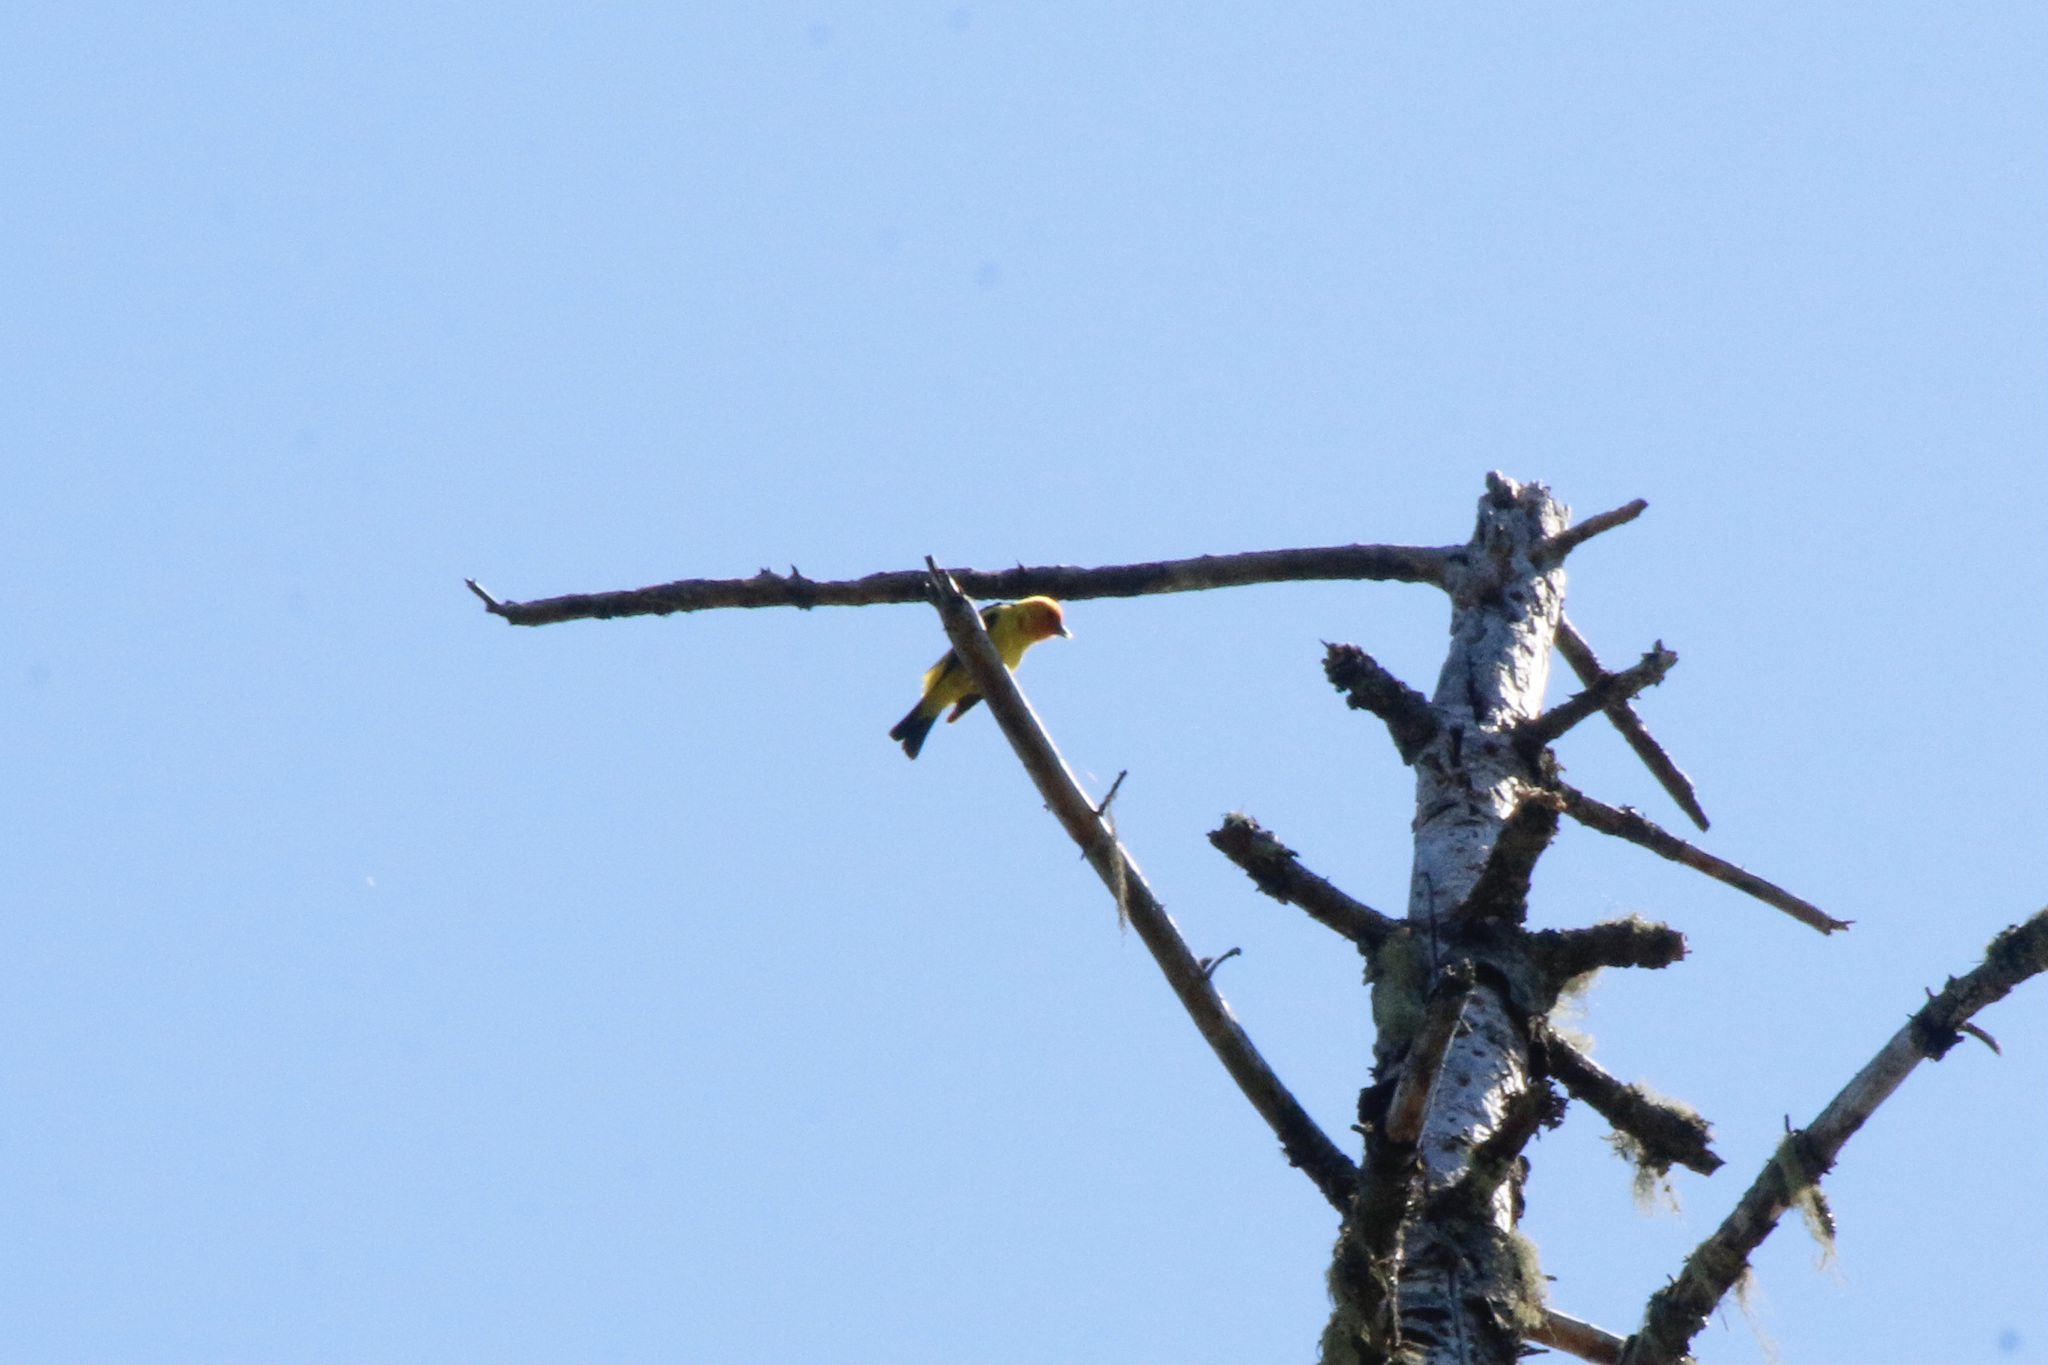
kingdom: Animalia
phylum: Chordata
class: Aves
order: Passeriformes
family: Cardinalidae
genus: Piranga
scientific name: Piranga ludoviciana
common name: Western tanager
